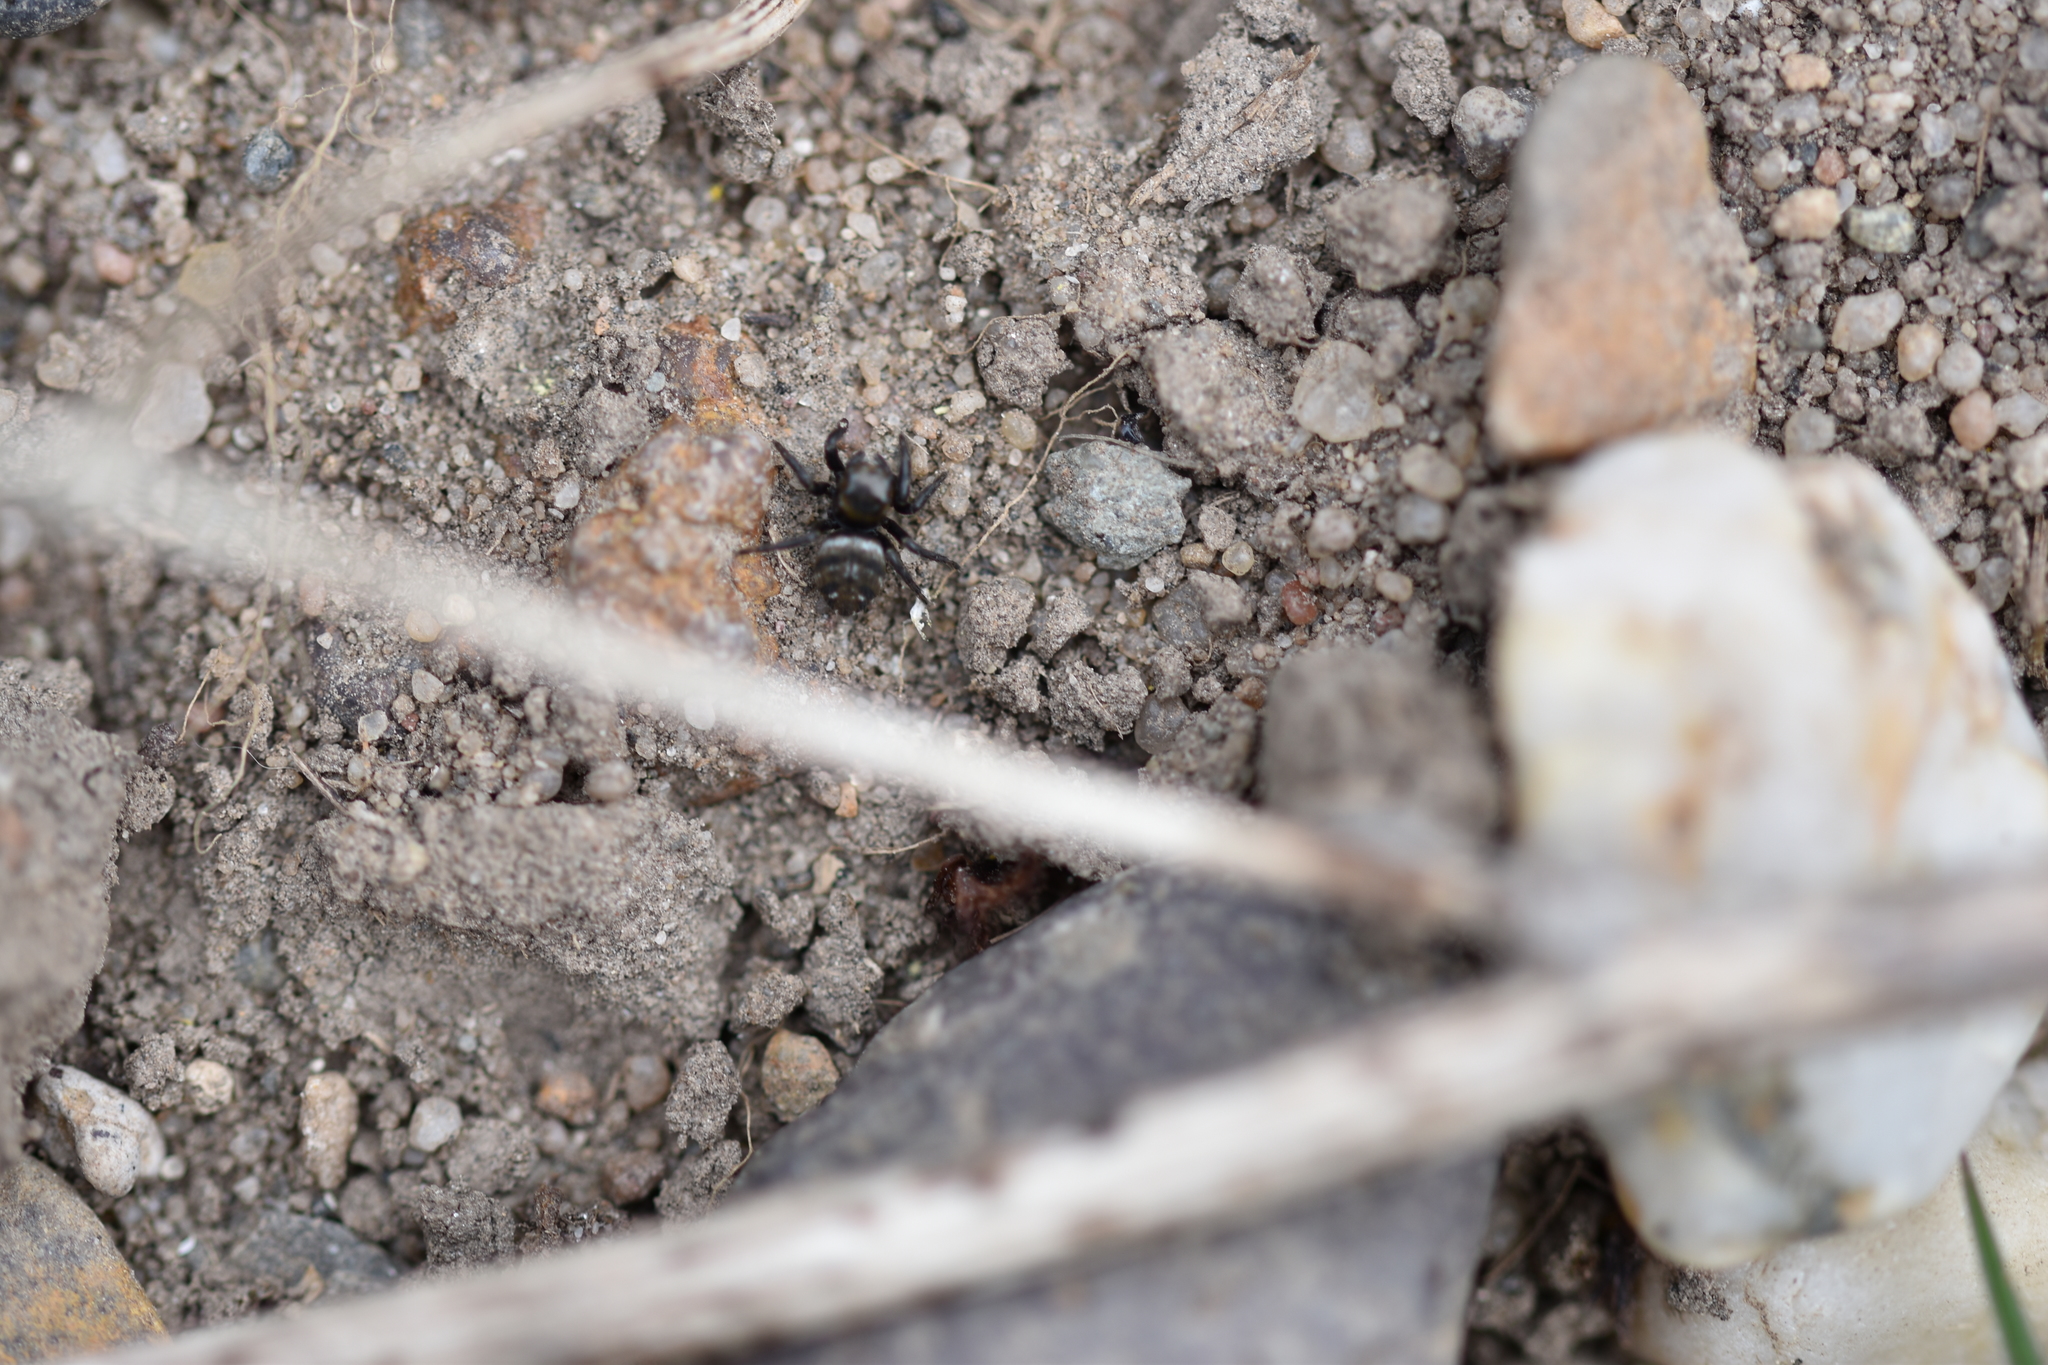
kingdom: Animalia
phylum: Arthropoda
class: Arachnida
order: Araneae
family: Salticidae
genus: Evarcha
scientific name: Evarcha arcuata
